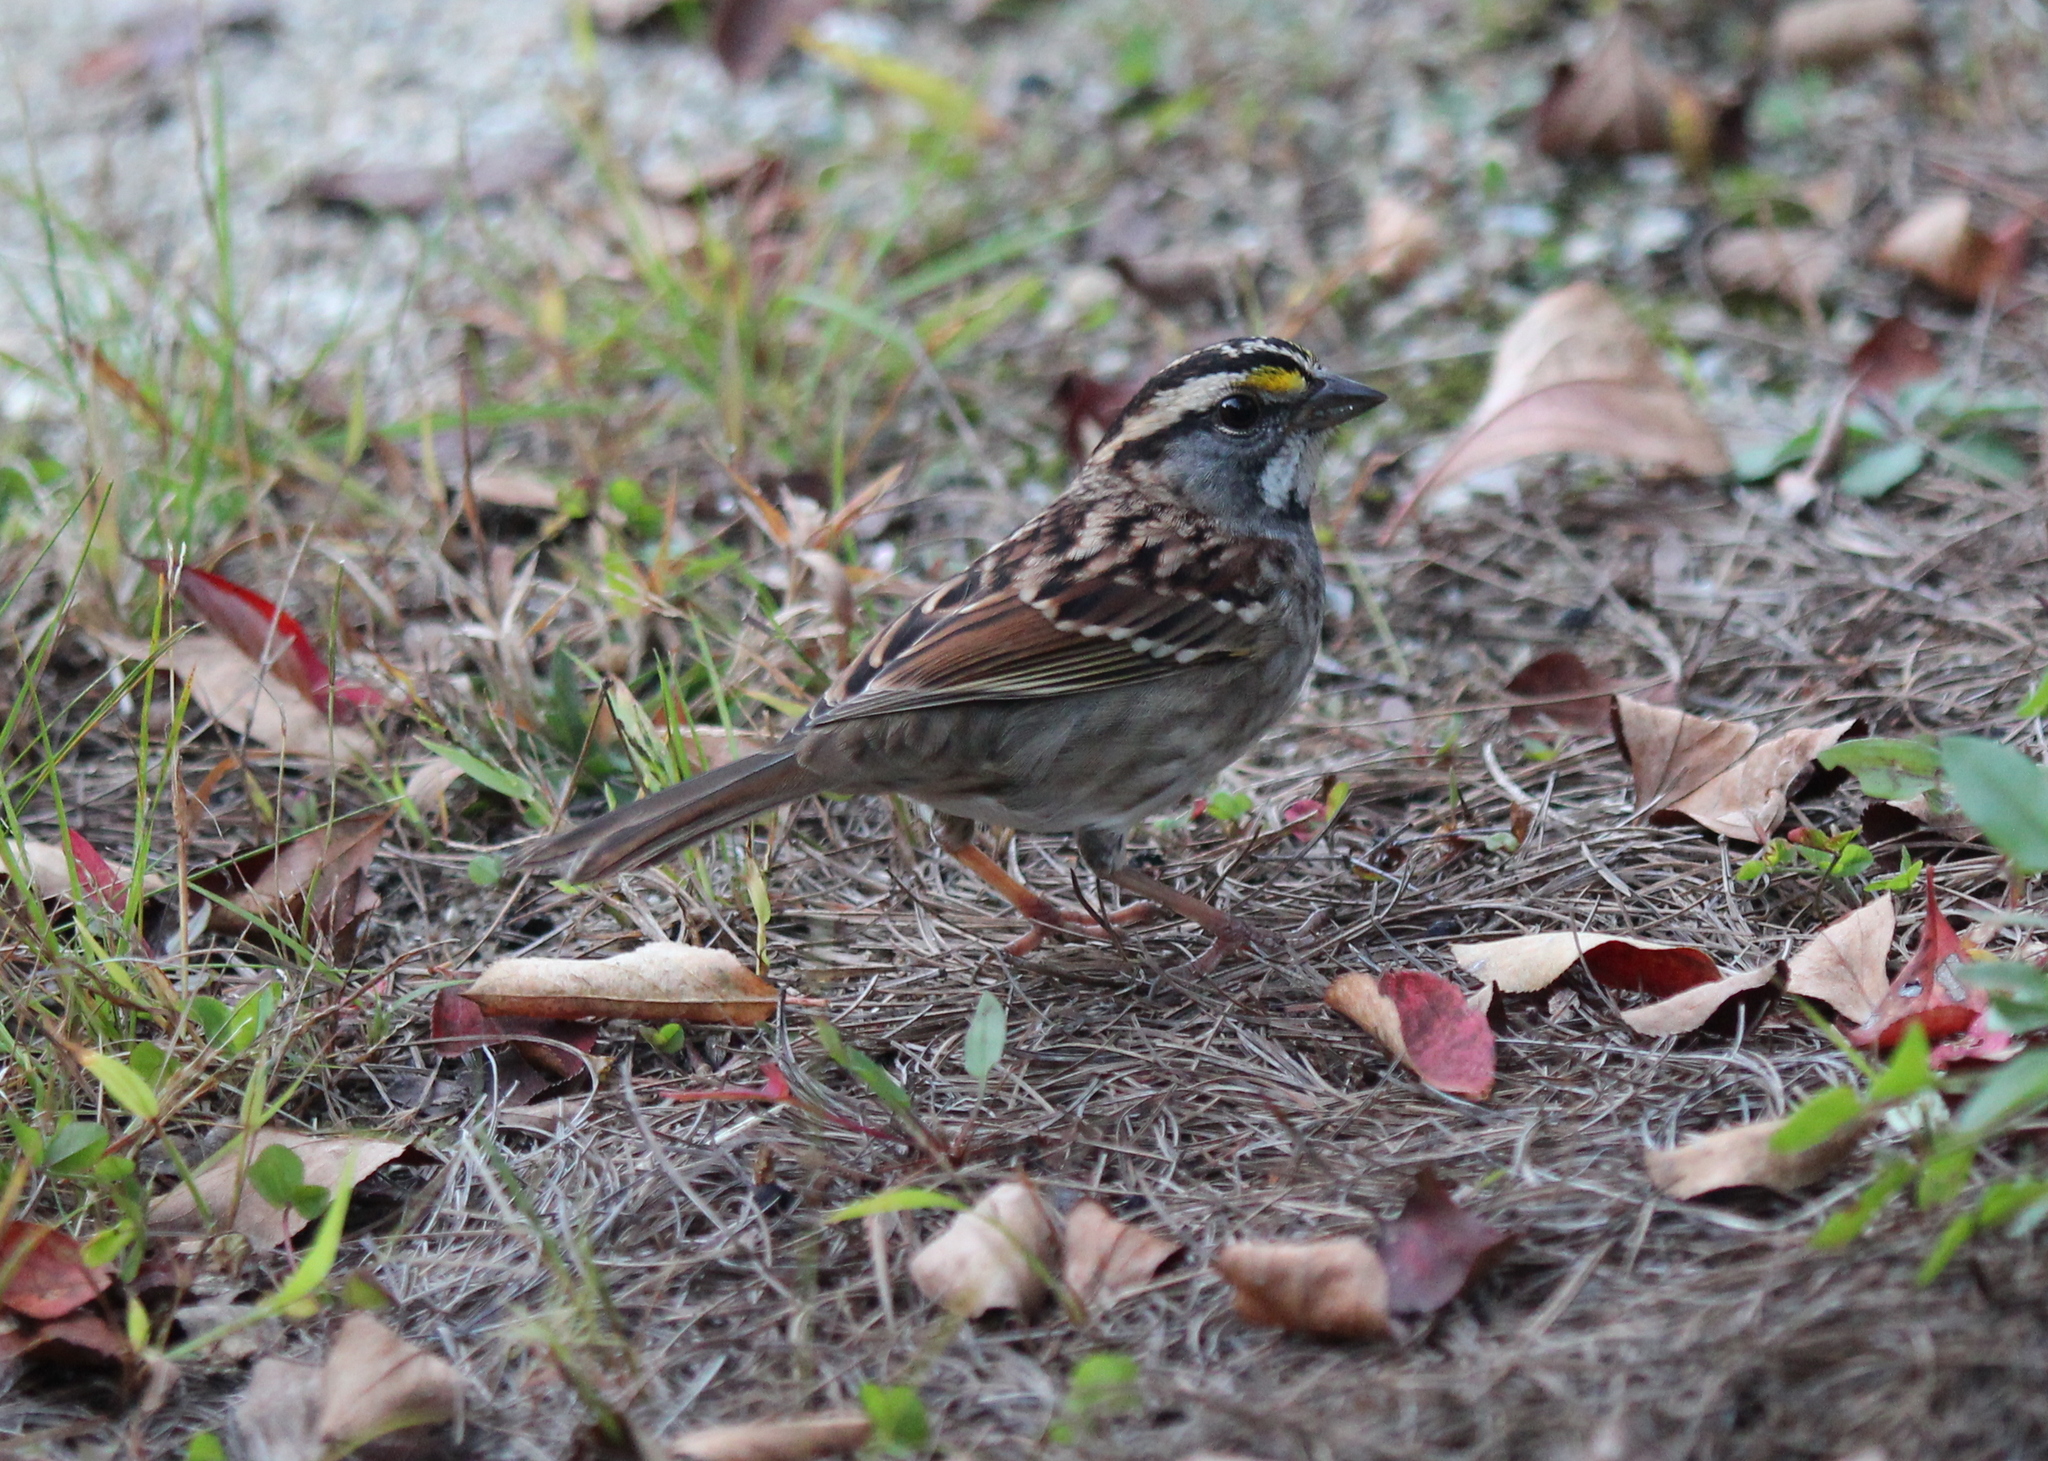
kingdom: Animalia
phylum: Chordata
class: Aves
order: Passeriformes
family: Passerellidae
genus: Zonotrichia
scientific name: Zonotrichia albicollis
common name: White-throated sparrow
